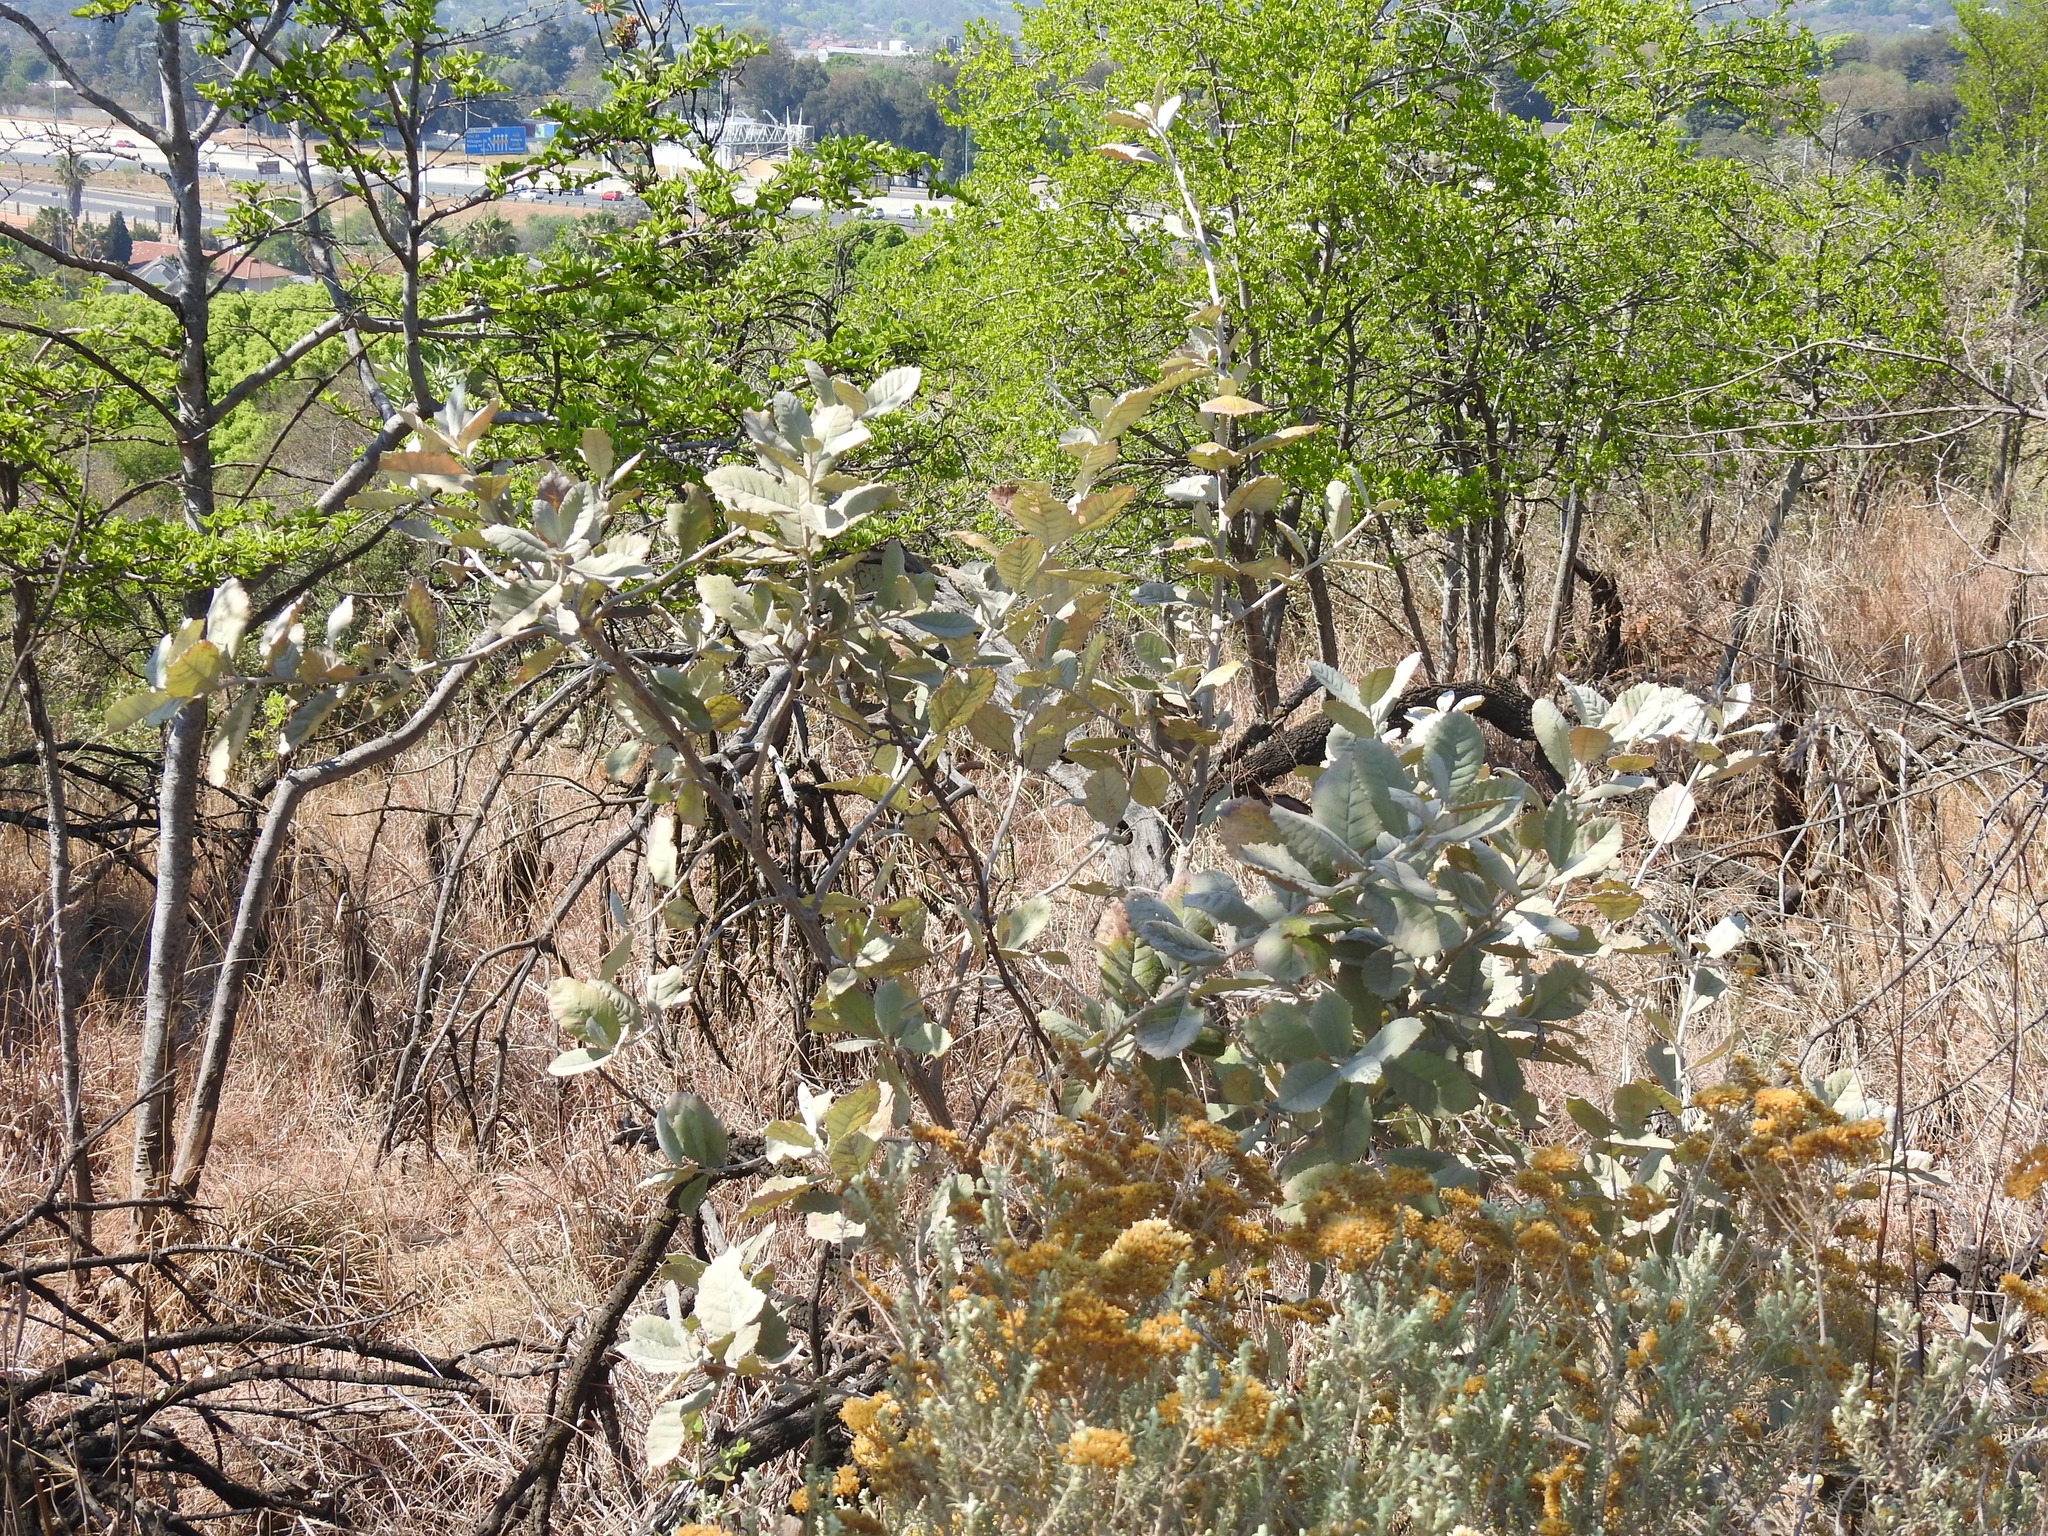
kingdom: Plantae
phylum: Tracheophyta
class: Magnoliopsida
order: Asterales
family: Asteraceae
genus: Brachylaena
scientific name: Brachylaena discolor
